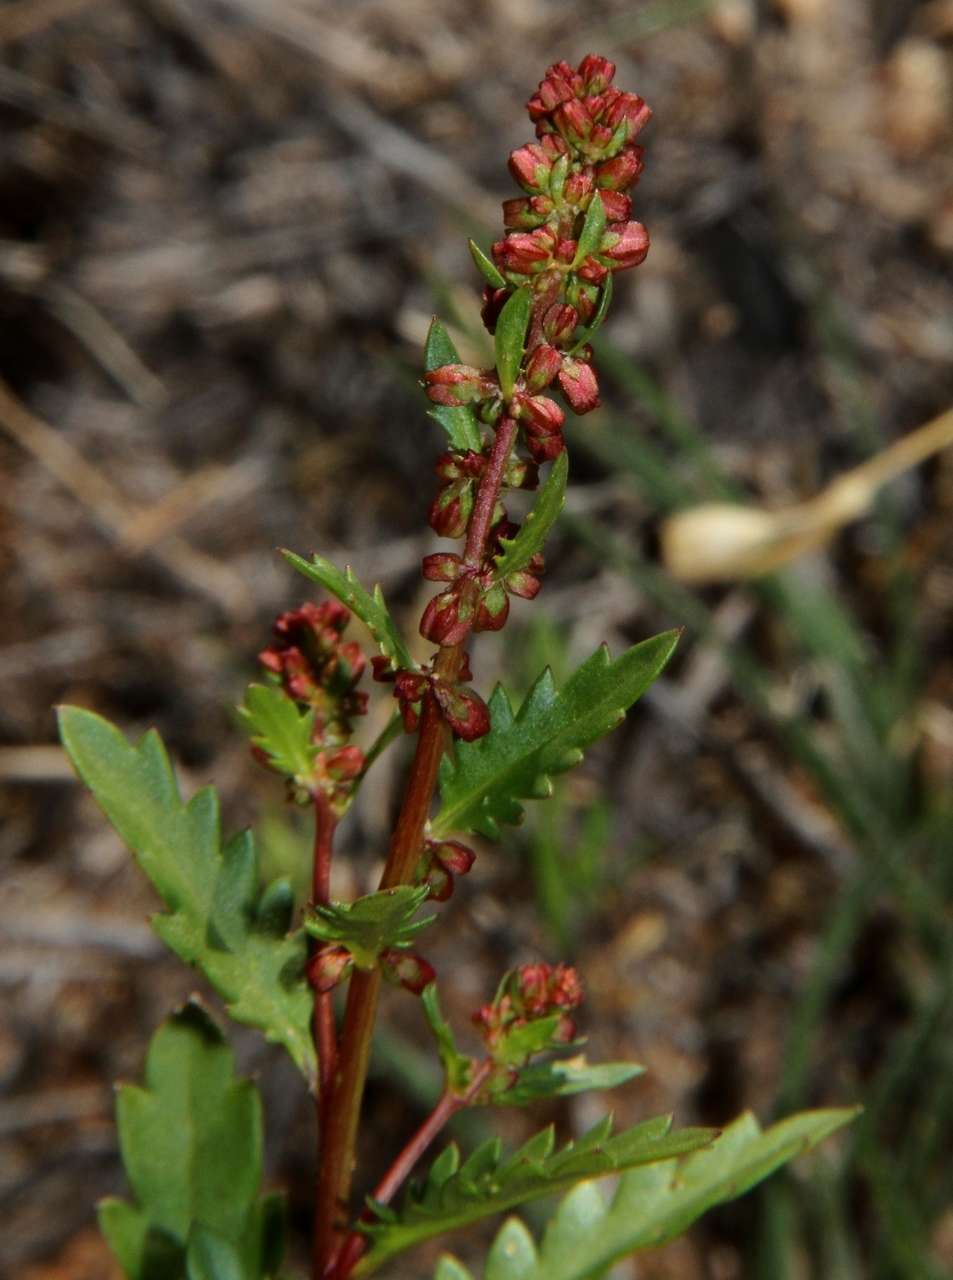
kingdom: Plantae
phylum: Tracheophyta
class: Magnoliopsida
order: Saxifragales
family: Haloragaceae
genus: Haloragis
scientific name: Haloragis odontocarpa
